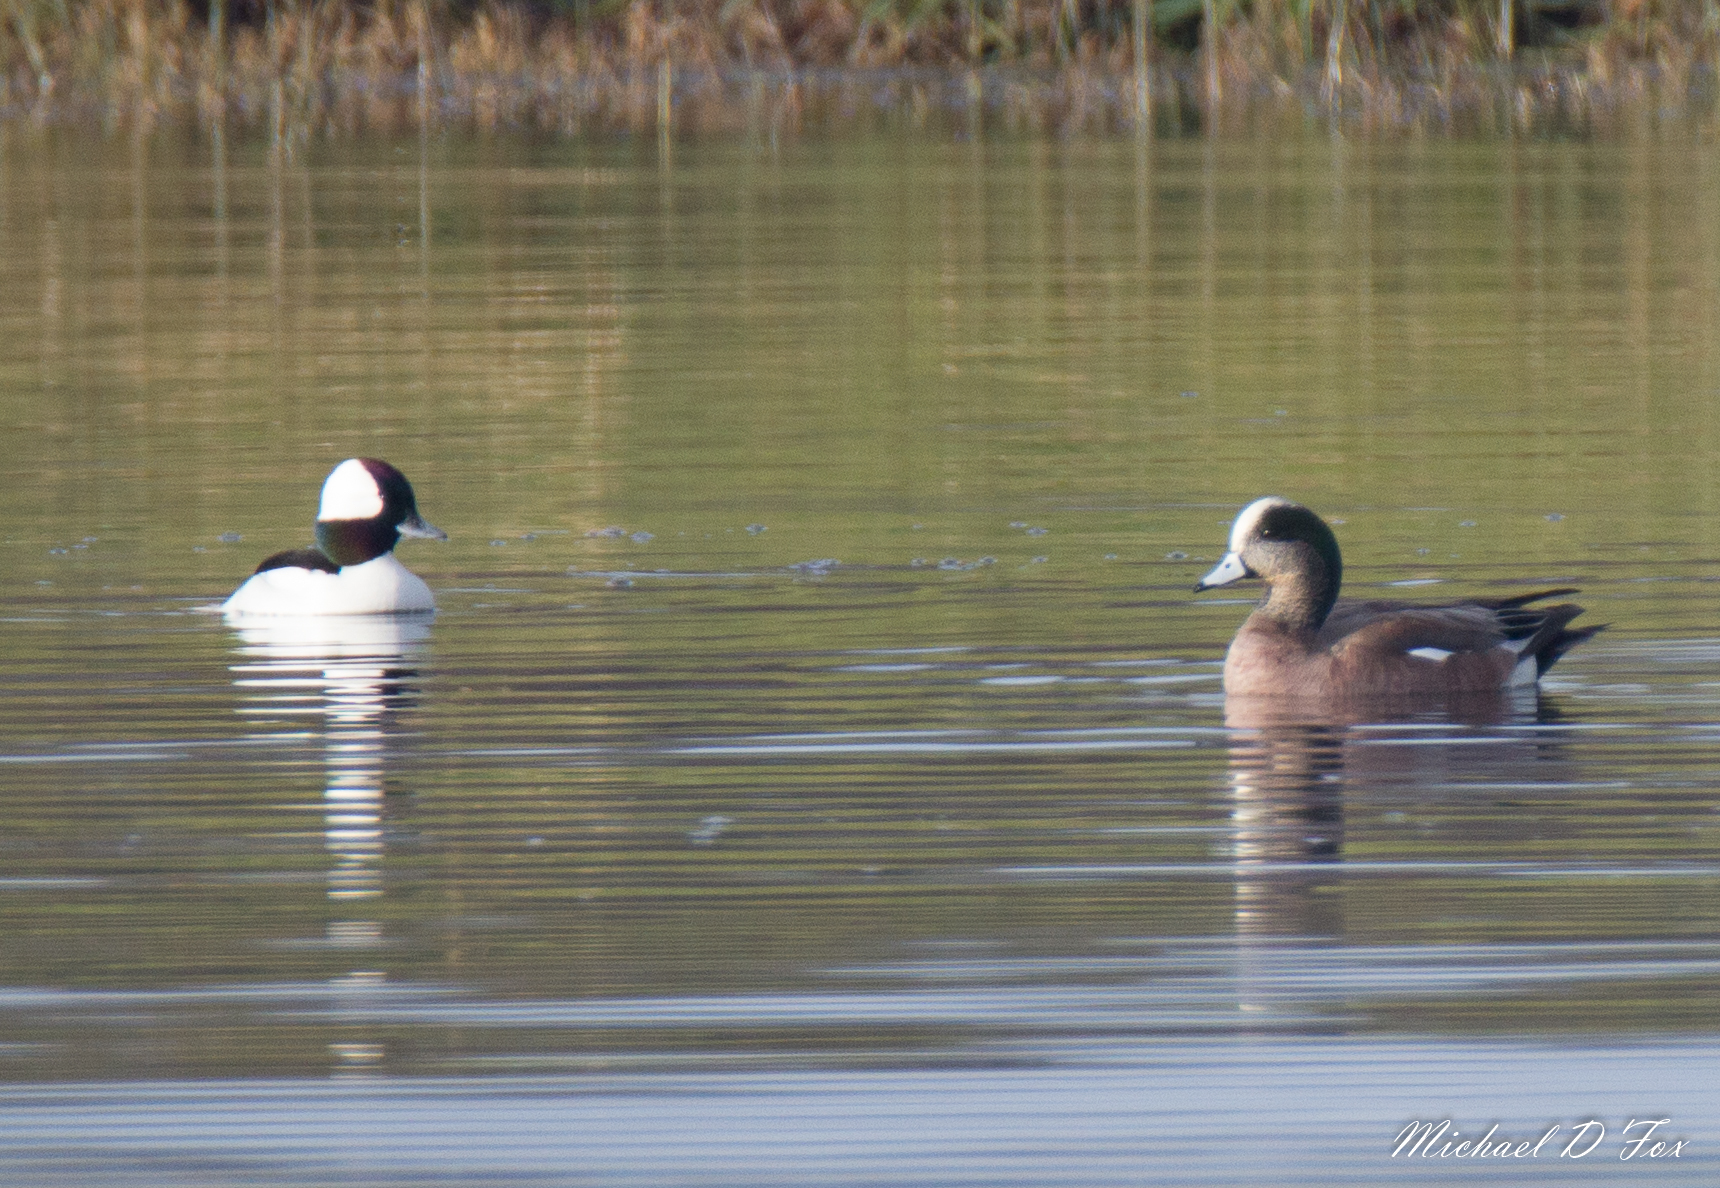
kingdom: Animalia
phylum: Chordata
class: Aves
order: Anseriformes
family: Anatidae
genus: Bucephala
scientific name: Bucephala albeola
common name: Bufflehead
